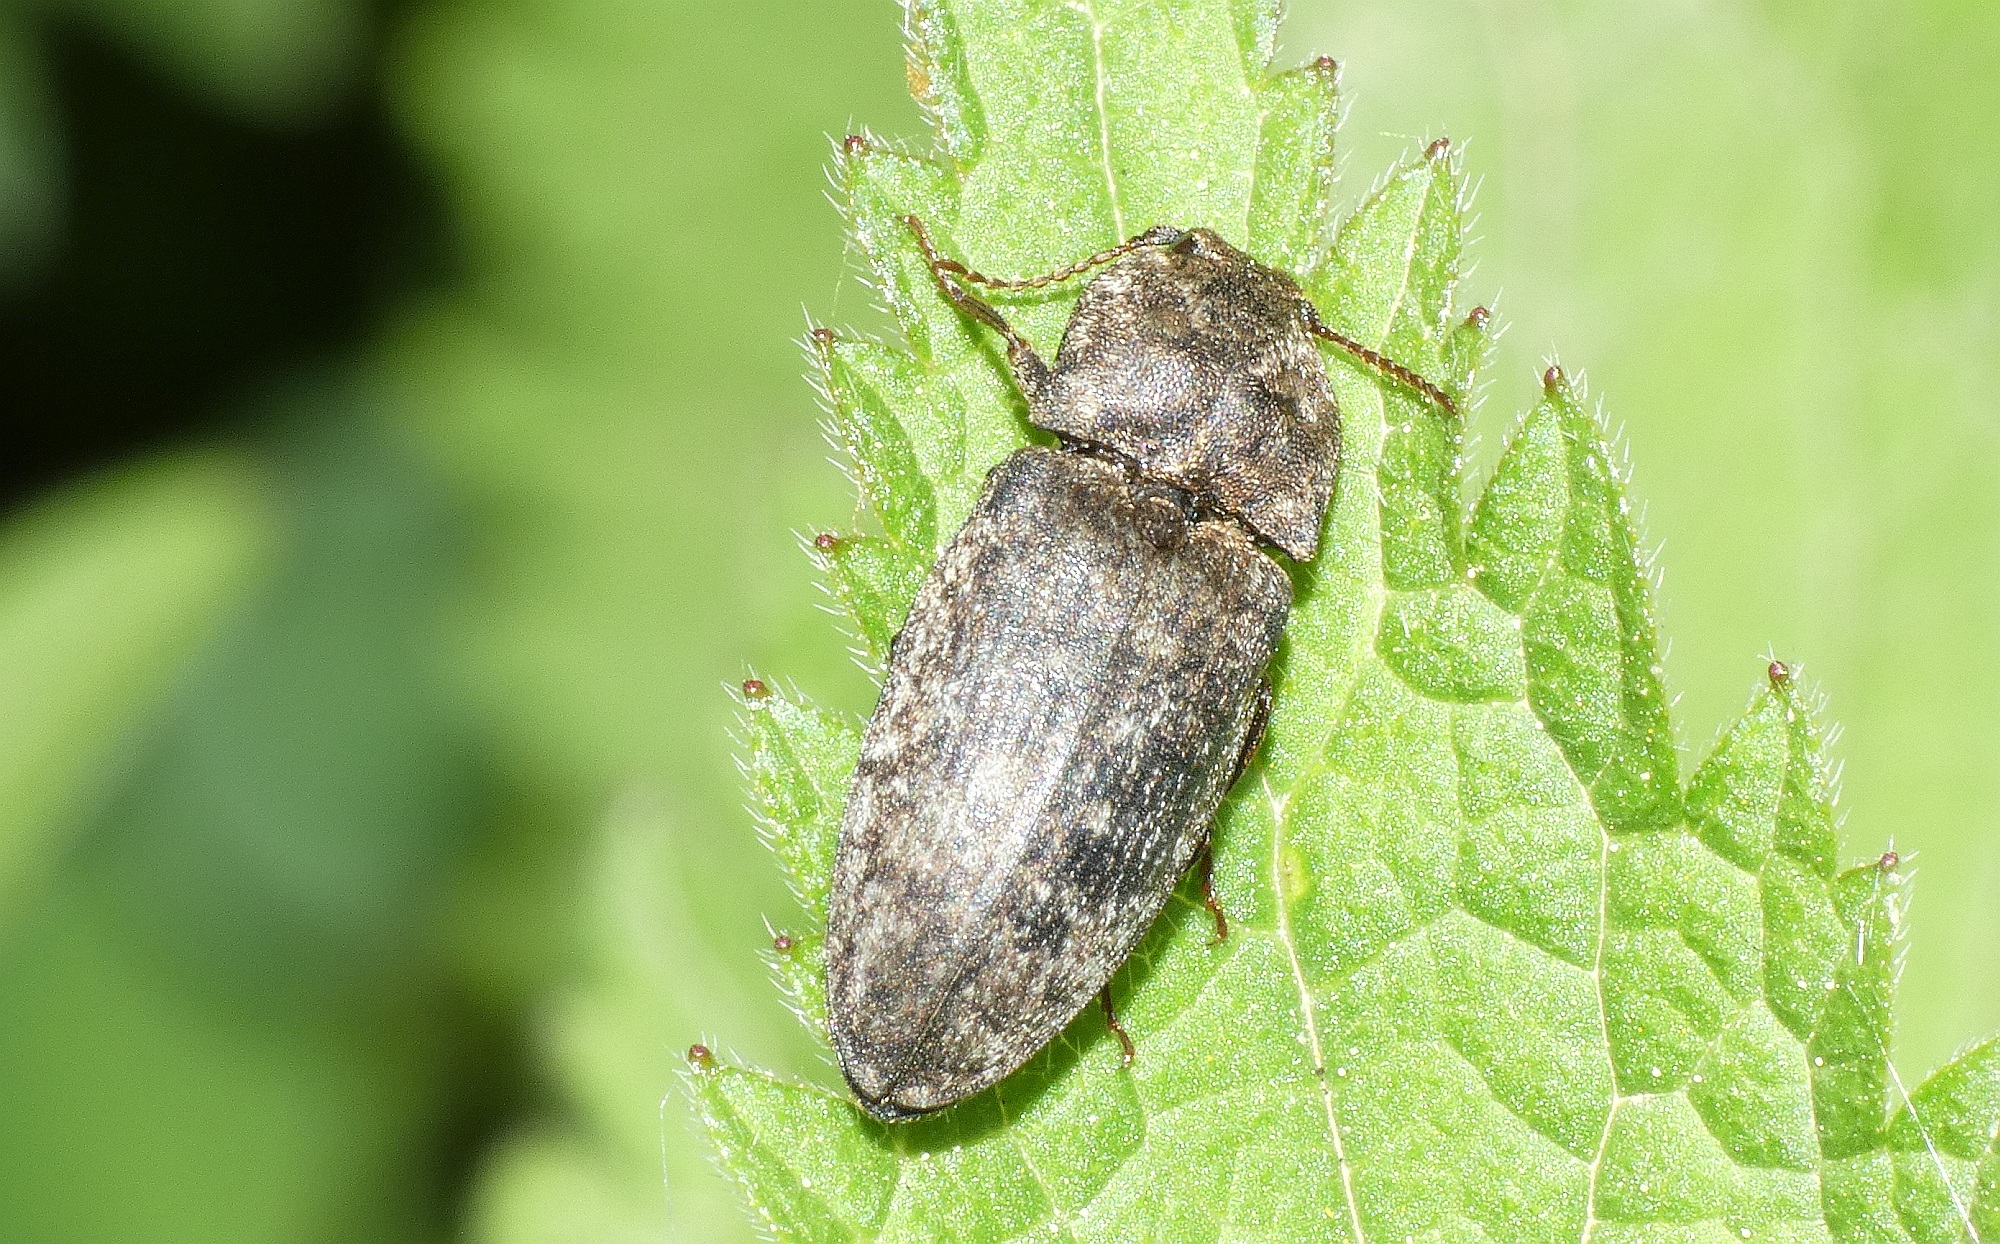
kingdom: Animalia
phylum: Arthropoda
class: Insecta
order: Coleoptera
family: Elateridae
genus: Agrypnus
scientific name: Agrypnus murinus
